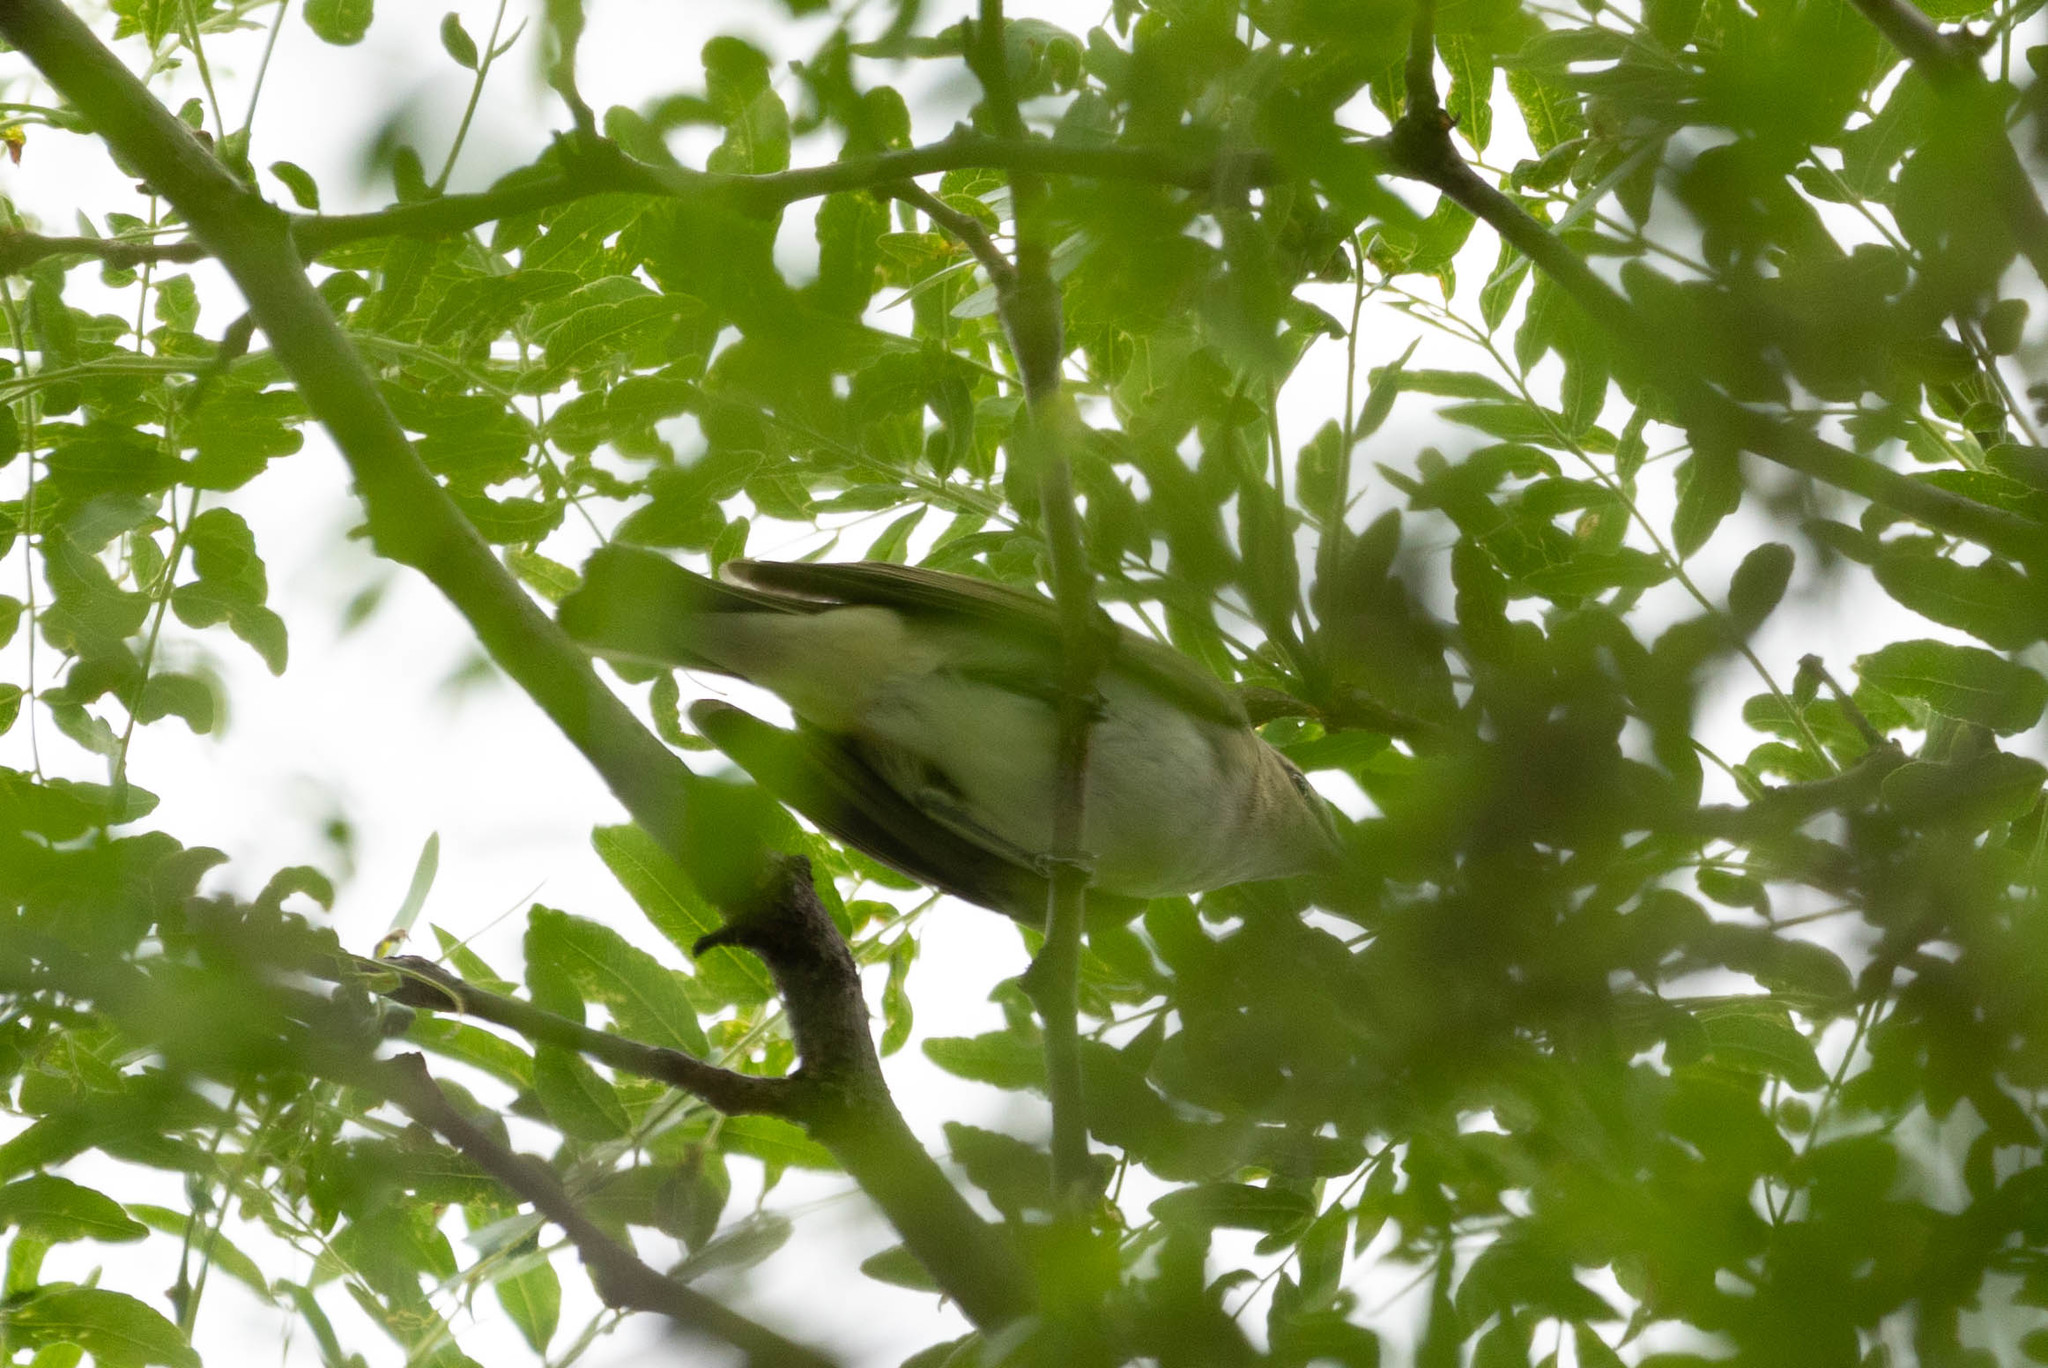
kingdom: Animalia
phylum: Chordata
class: Aves
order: Passeriformes
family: Vireonidae
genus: Vireo
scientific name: Vireo olivaceus
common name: Red-eyed vireo
